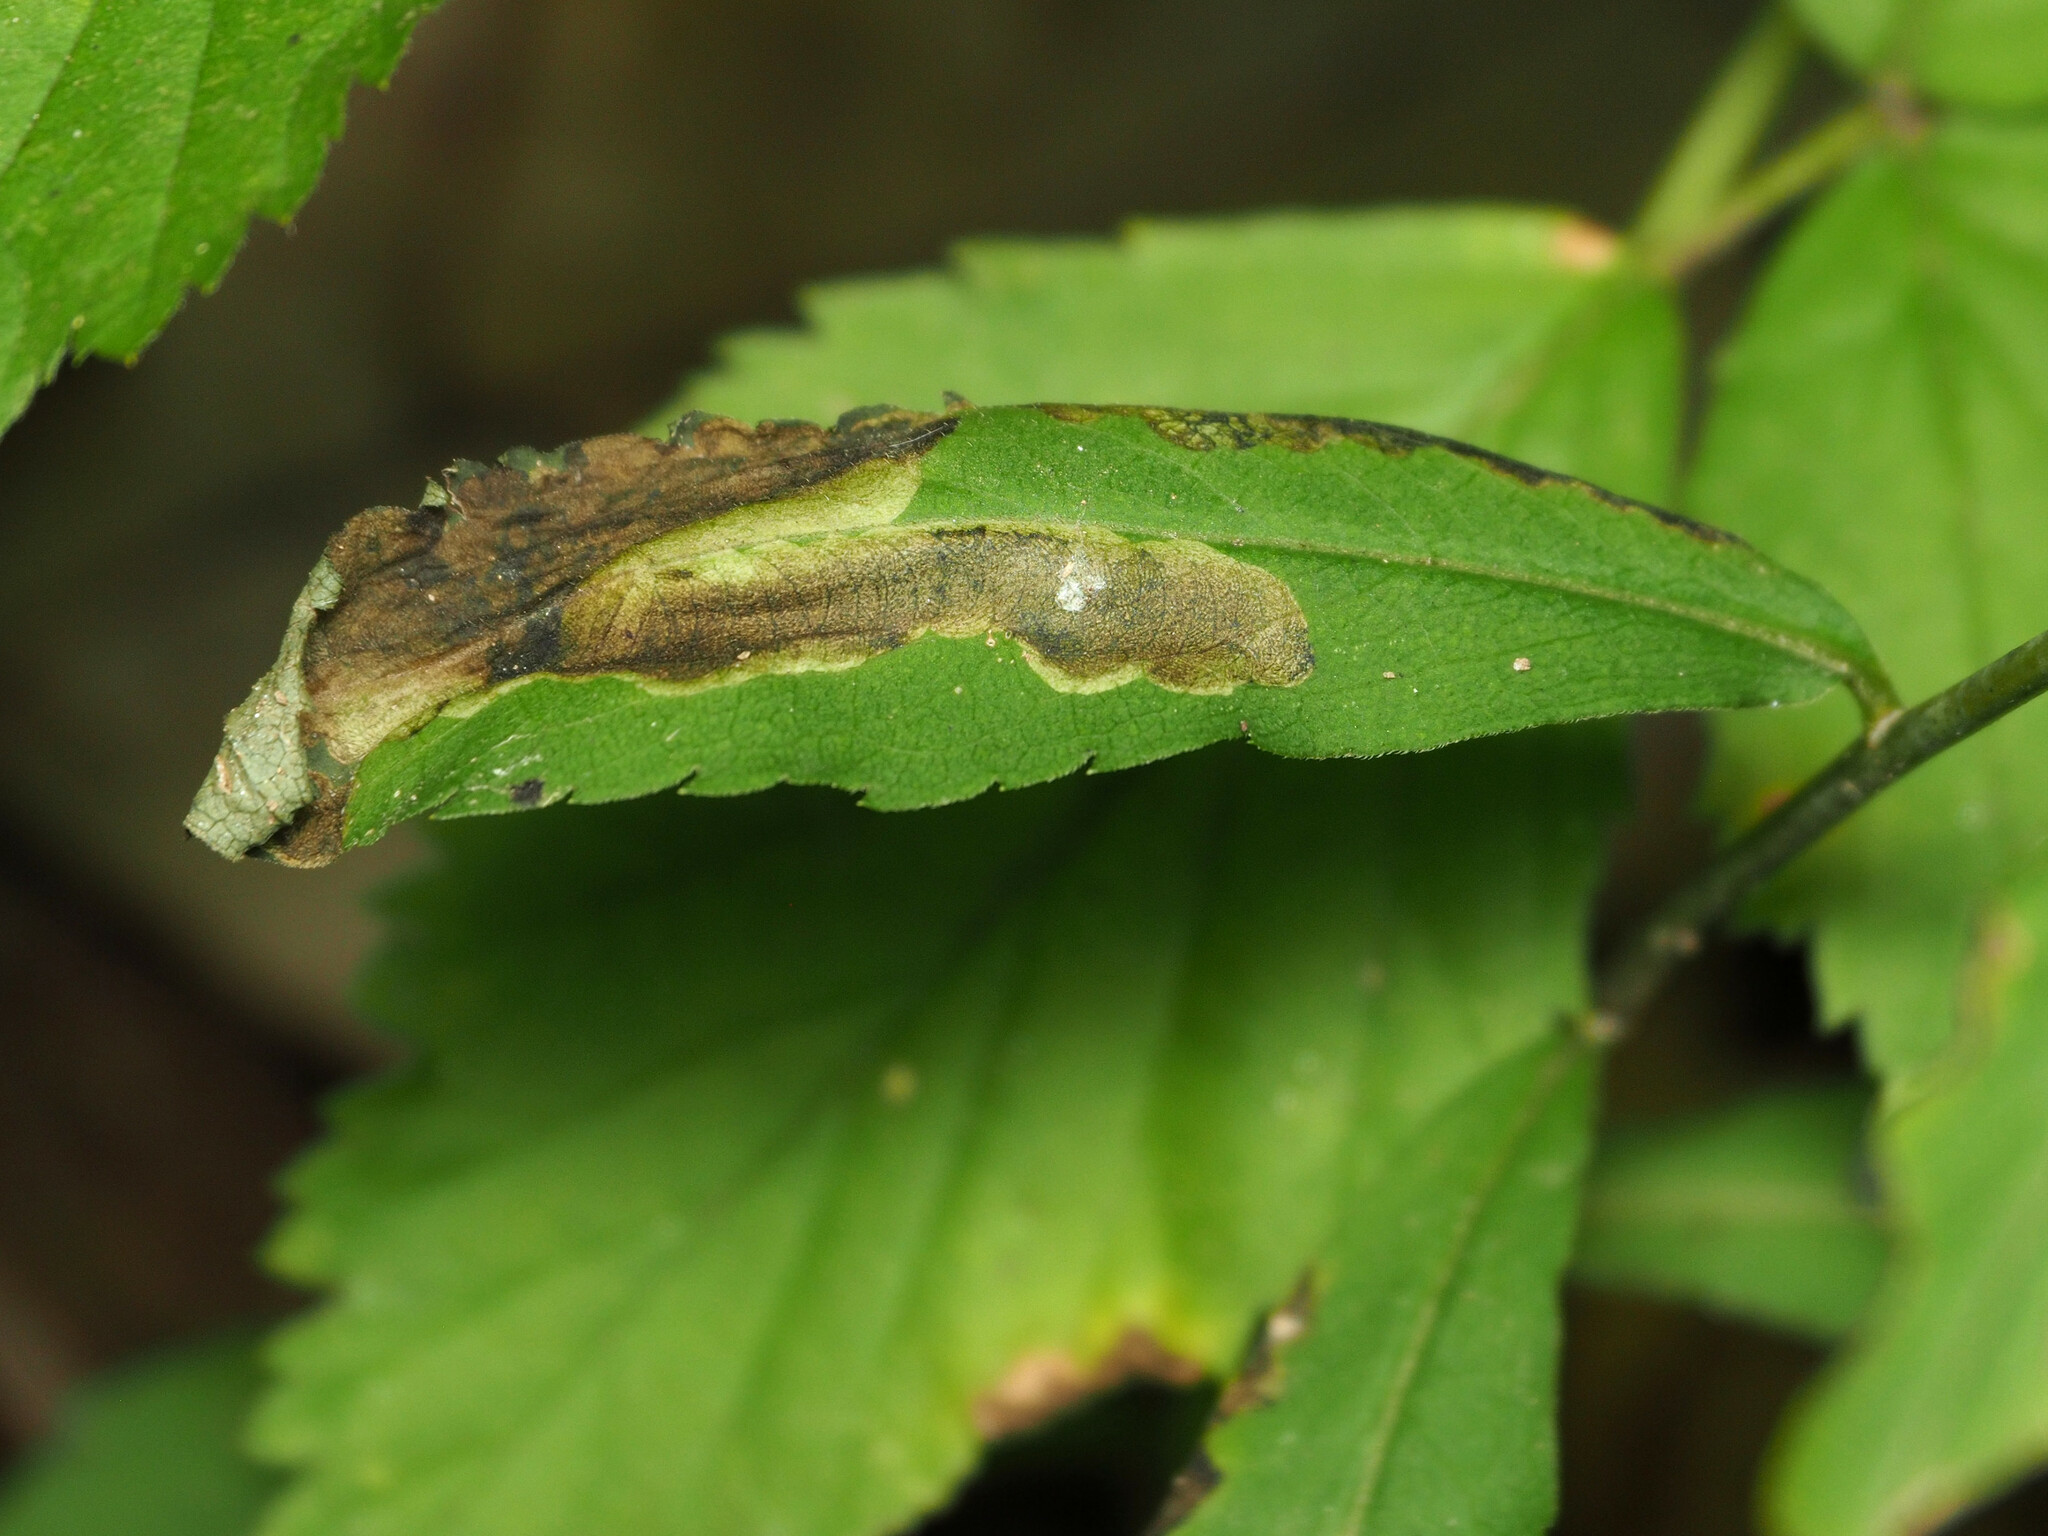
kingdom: Animalia
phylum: Arthropoda
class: Insecta
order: Diptera
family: Agromyzidae
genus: Nemorimyza
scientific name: Nemorimyza posticata
